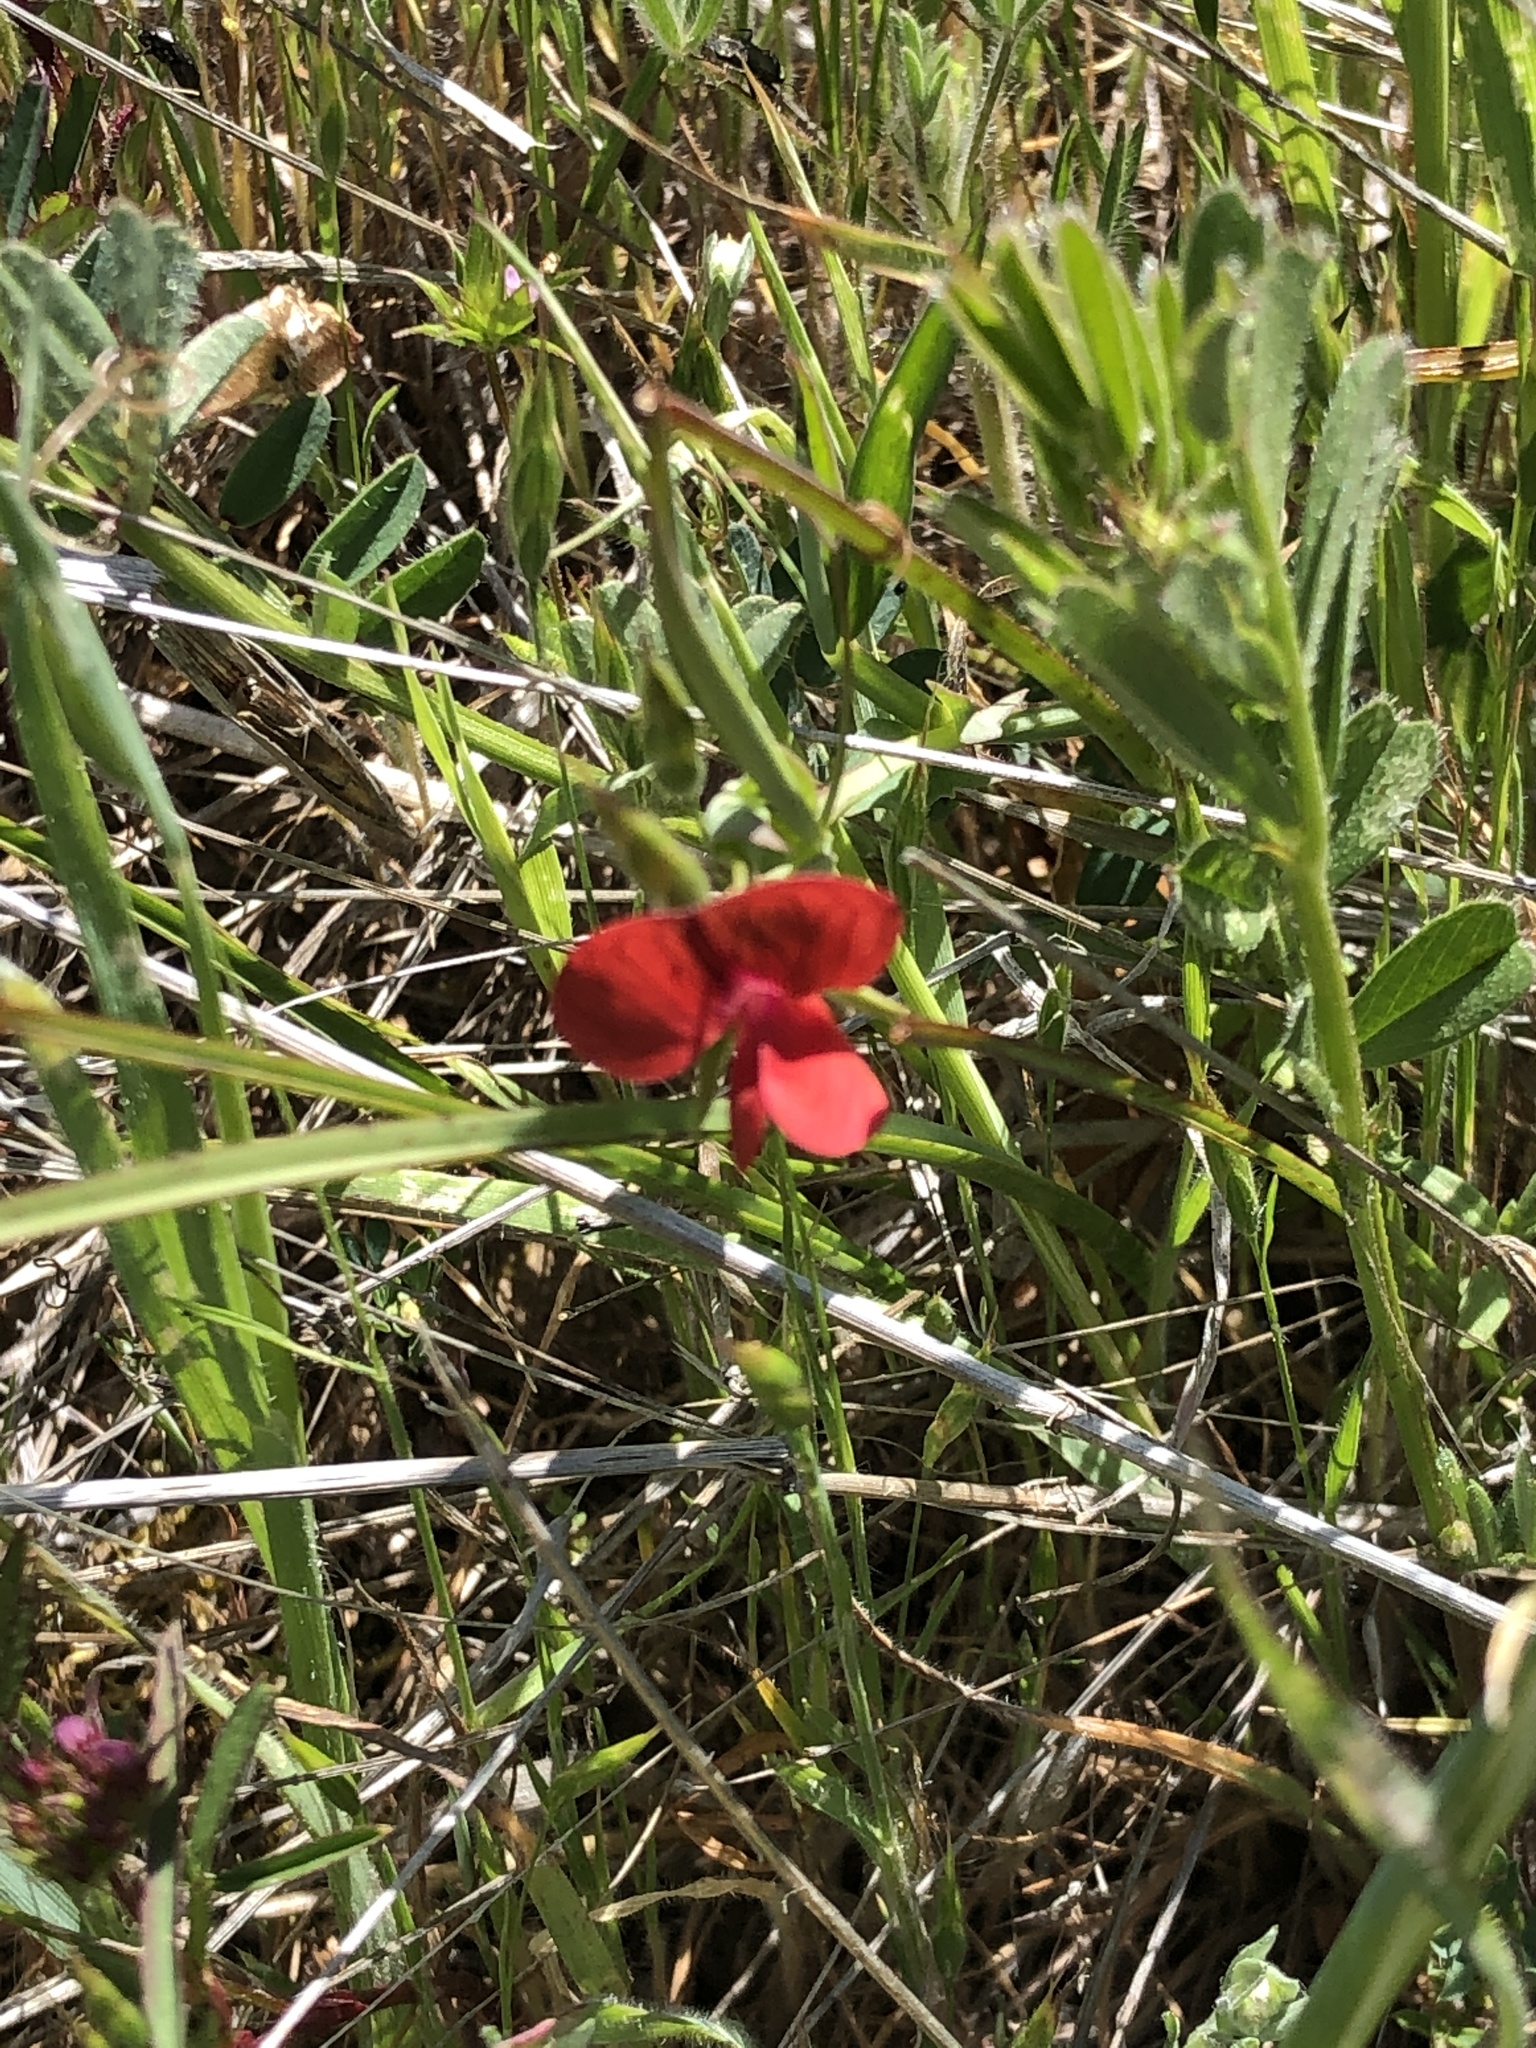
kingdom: Plantae
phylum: Tracheophyta
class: Magnoliopsida
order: Fabales
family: Fabaceae
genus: Lathyrus
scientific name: Lathyrus cicera
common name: Red vetchling
